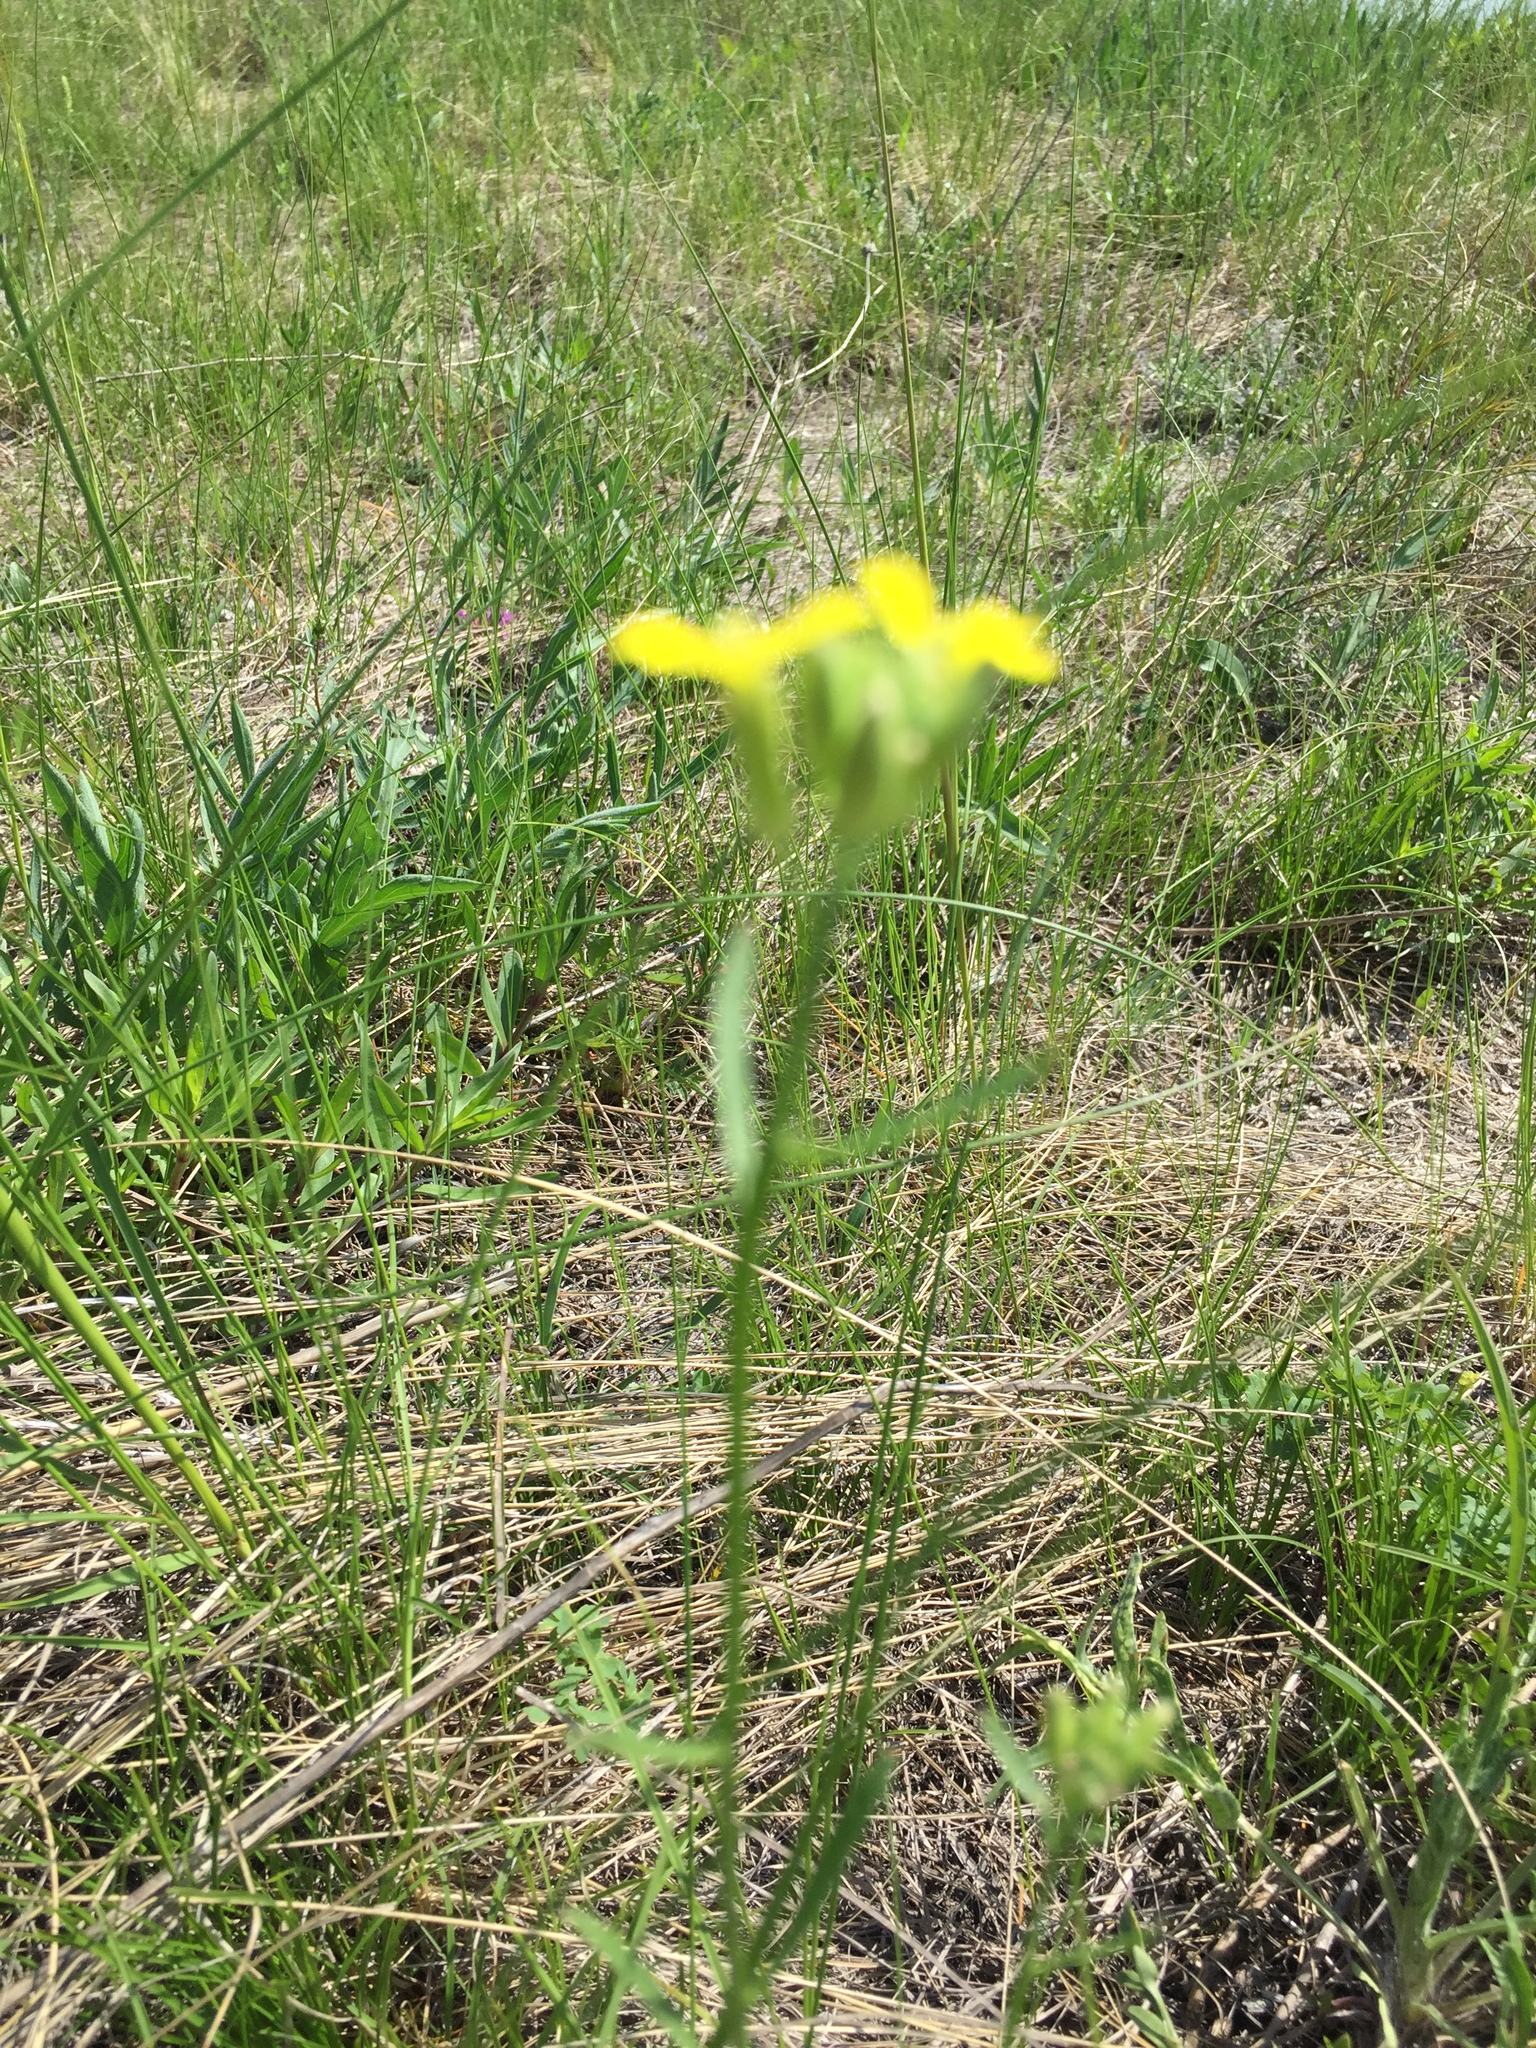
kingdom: Plantae
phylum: Tracheophyta
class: Magnoliopsida
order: Brassicales
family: Brassicaceae
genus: Erysimum
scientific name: Erysimum diffusum
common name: Diffuse wallflower
